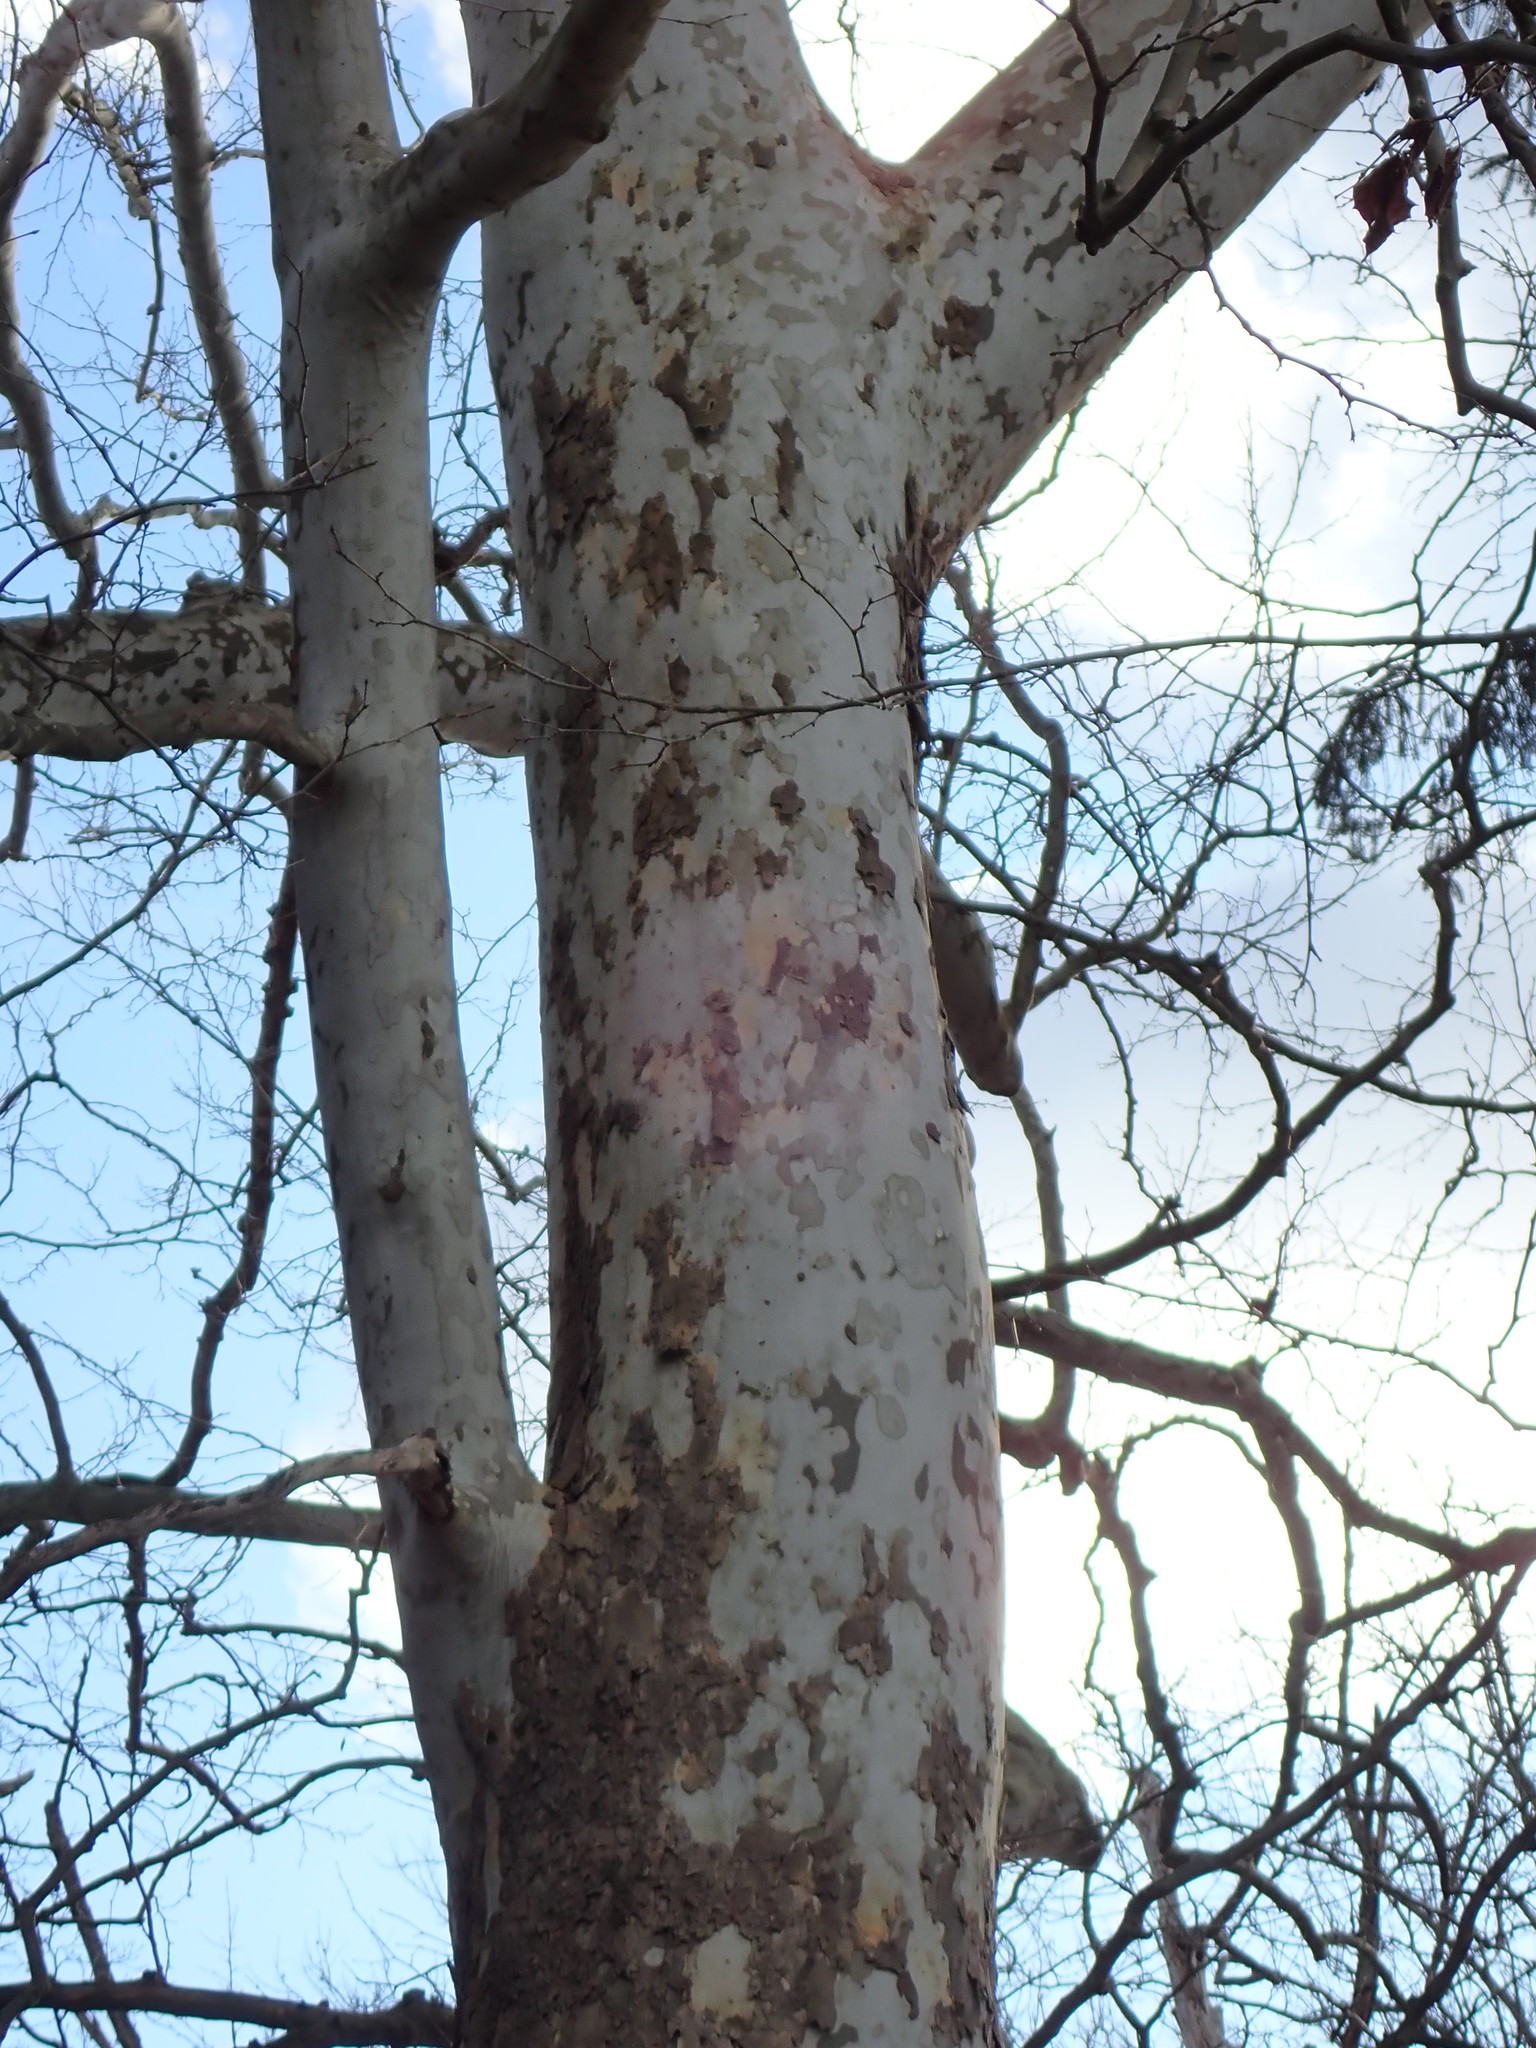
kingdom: Plantae
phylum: Tracheophyta
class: Magnoliopsida
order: Proteales
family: Platanaceae
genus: Platanus
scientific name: Platanus occidentalis
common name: American sycamore
